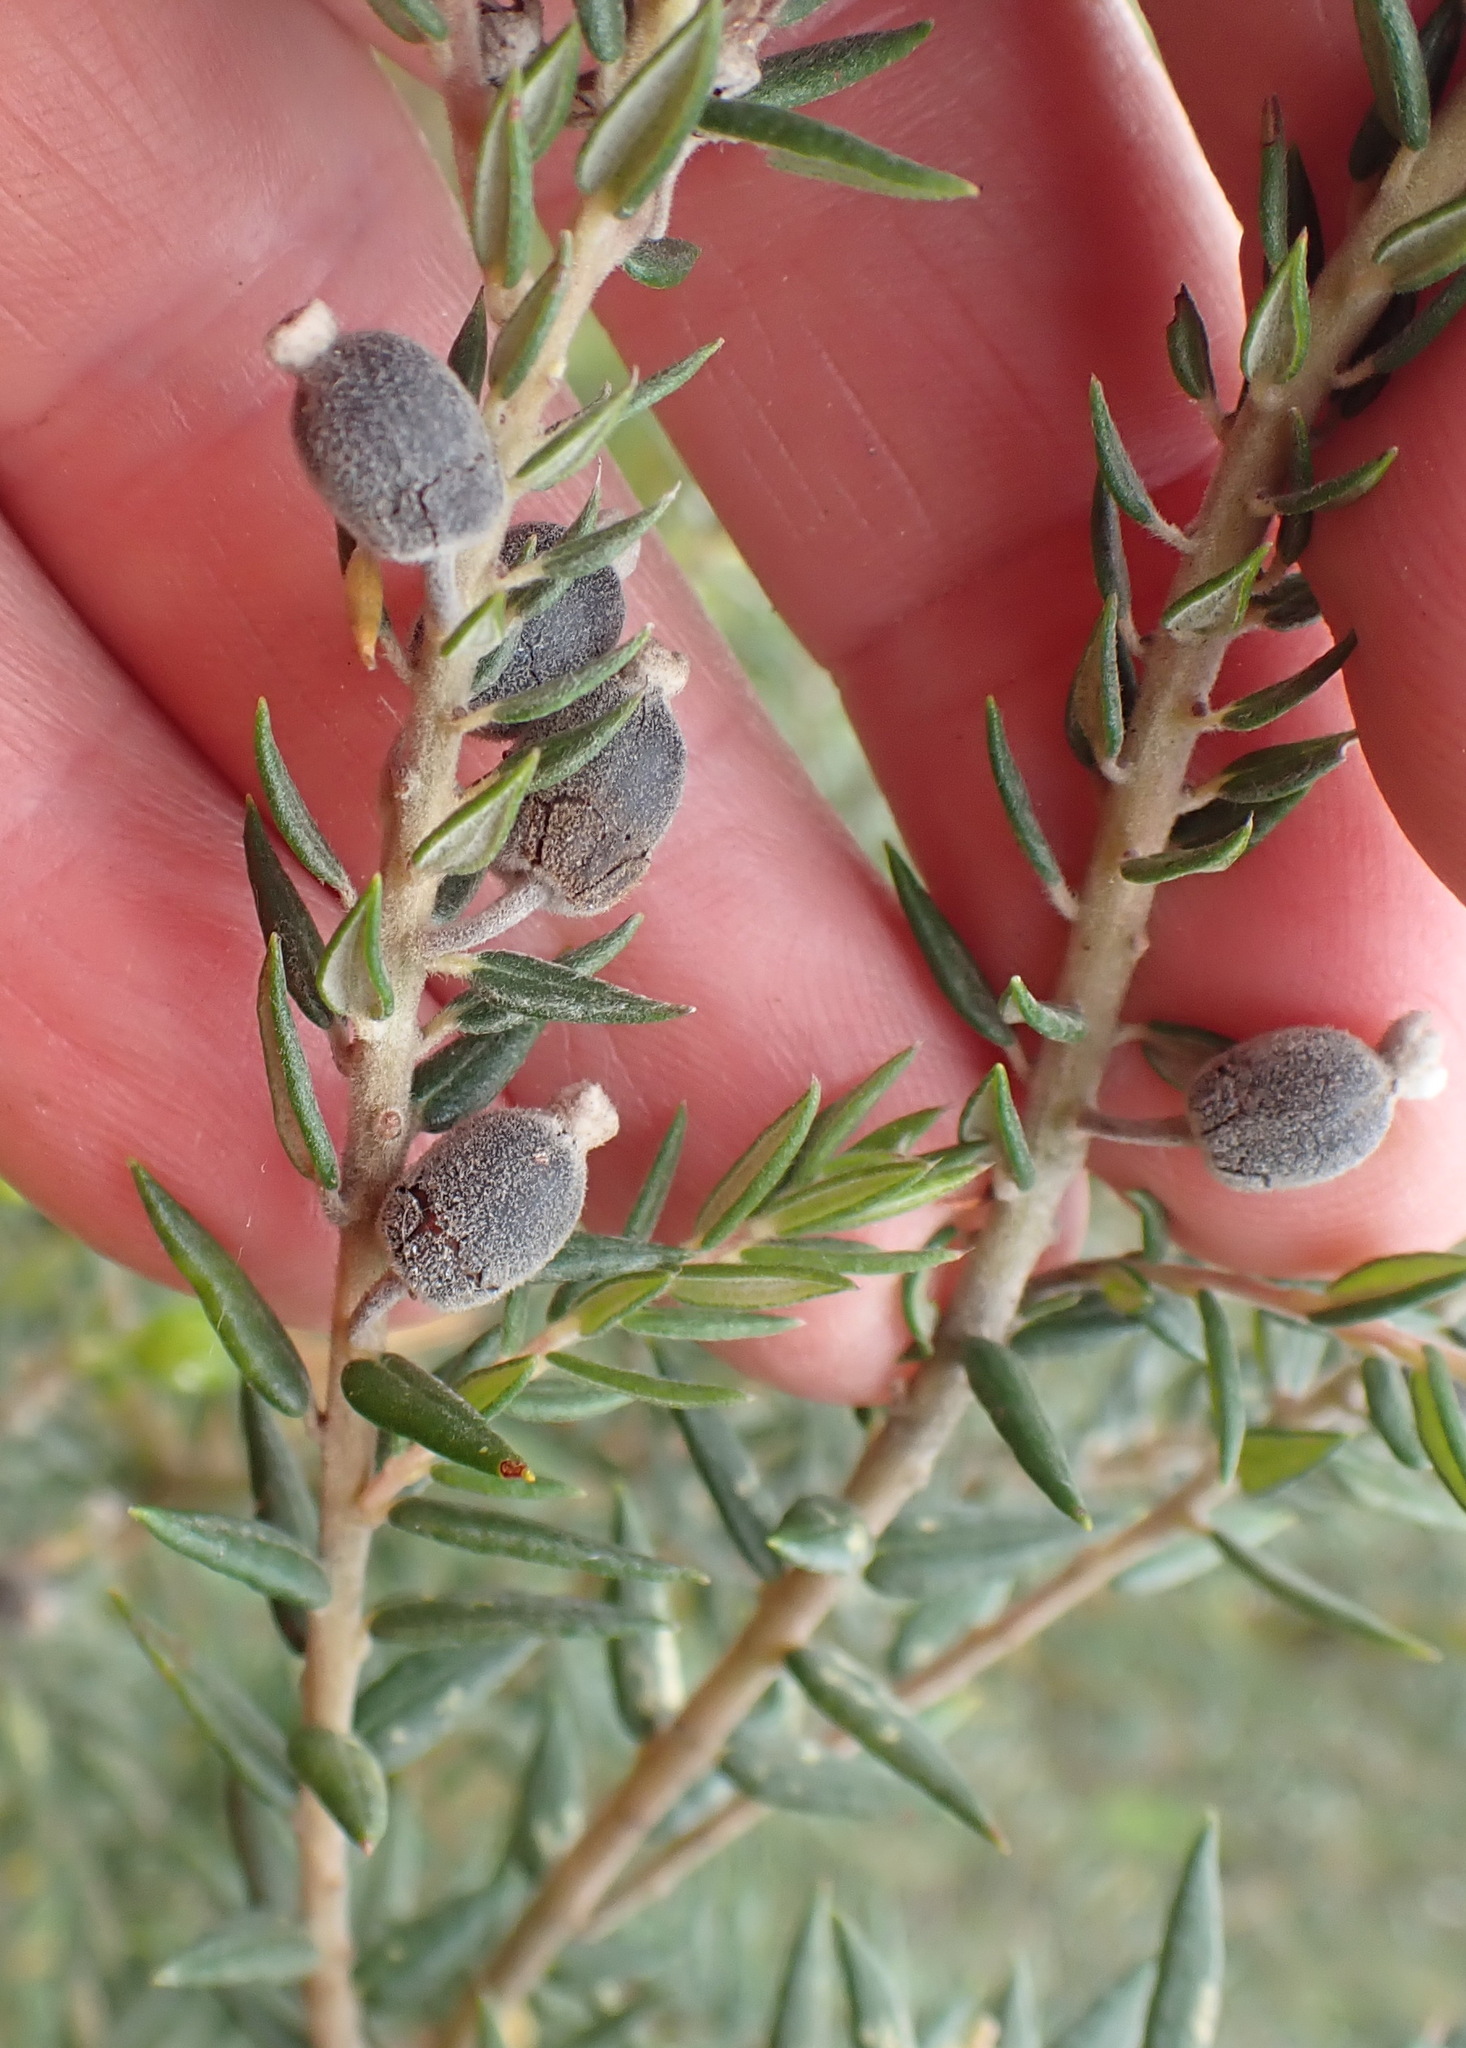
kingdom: Plantae
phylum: Tracheophyta
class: Magnoliopsida
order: Rosales
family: Rhamnaceae
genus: Phylica
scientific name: Phylica pinea
